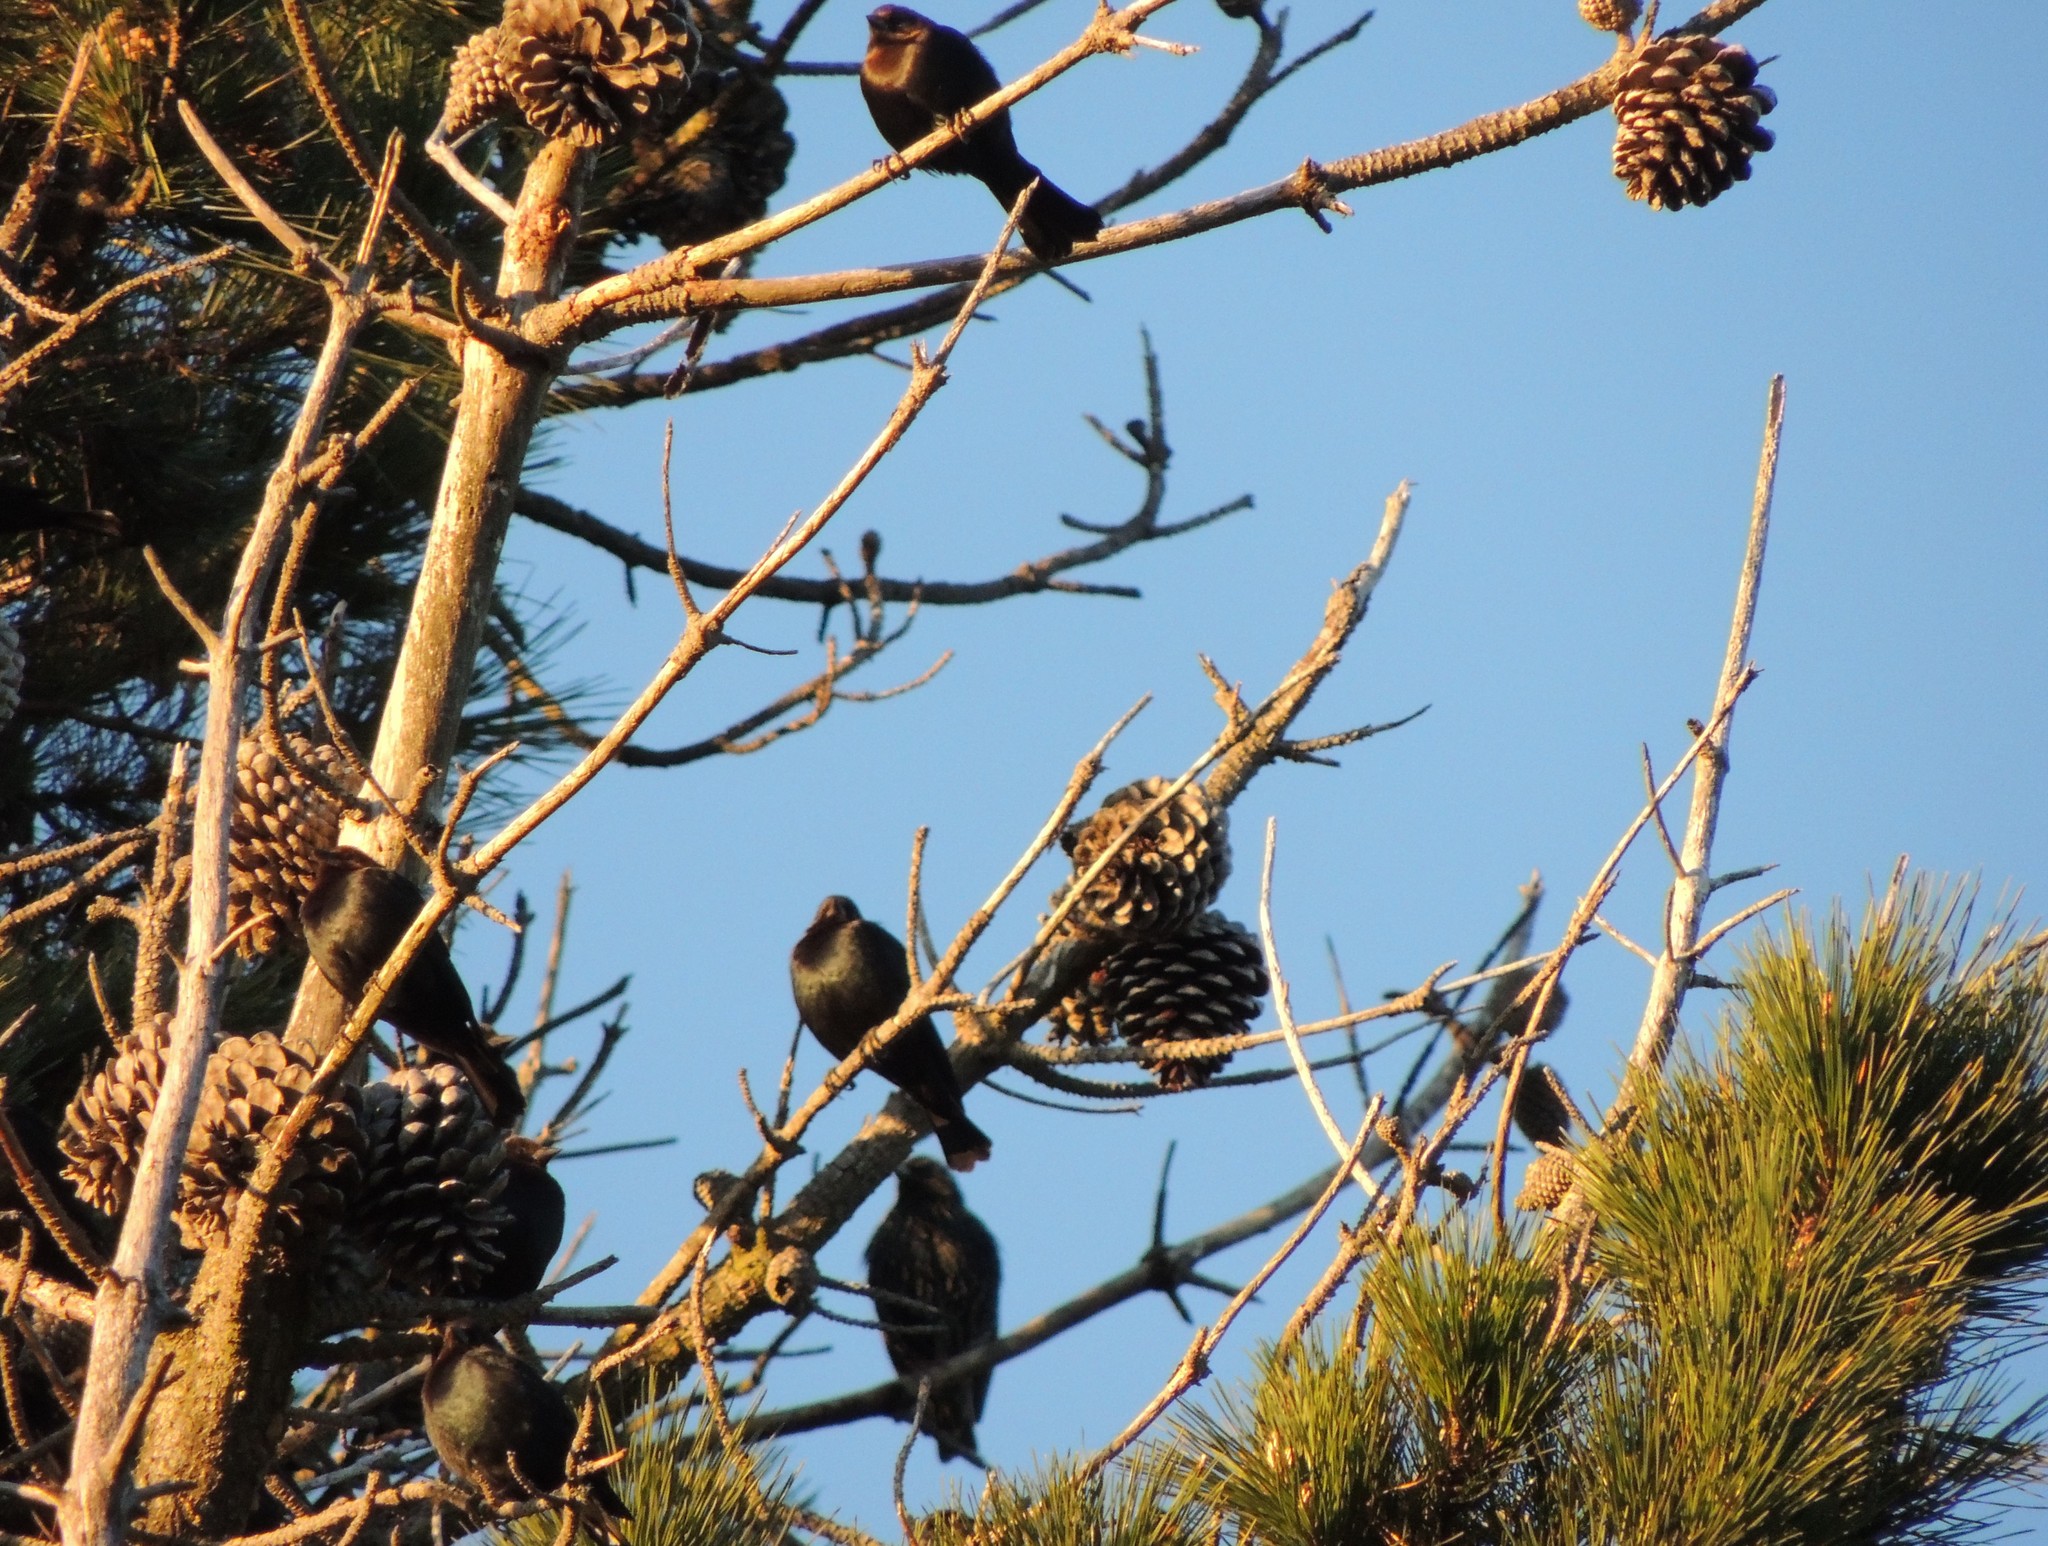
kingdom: Animalia
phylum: Chordata
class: Aves
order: Passeriformes
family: Icteridae
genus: Molothrus
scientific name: Molothrus ater
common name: Brown-headed cowbird
